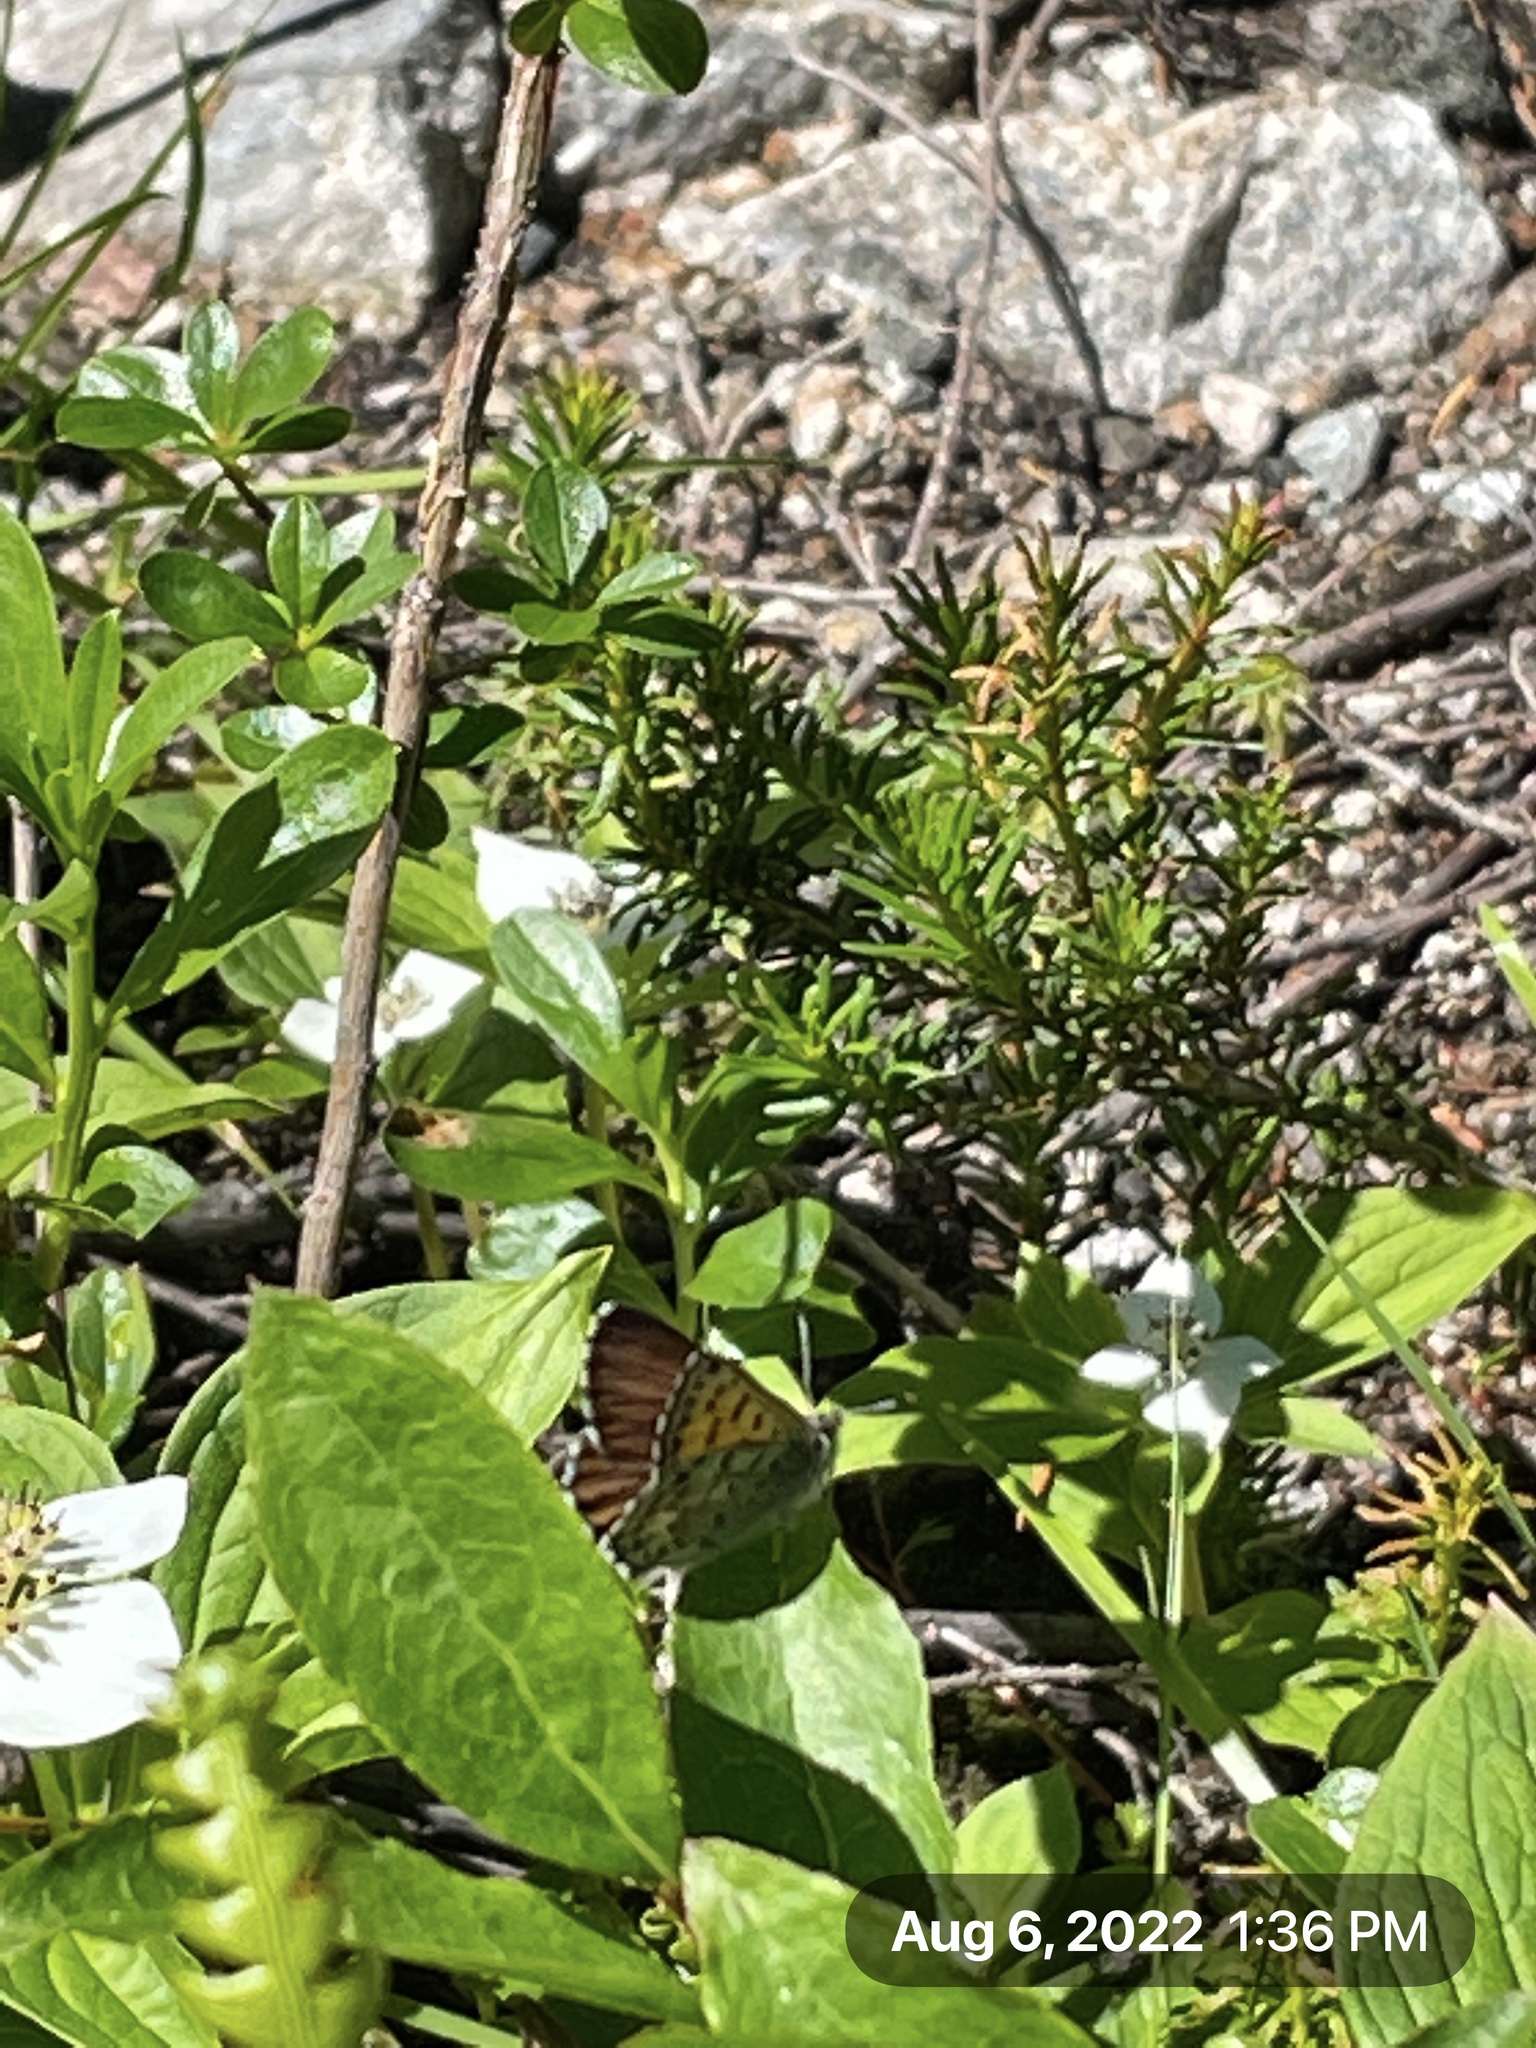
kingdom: Animalia
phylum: Arthropoda
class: Insecta
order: Lepidoptera
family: Lycaenidae
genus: Tharsalea
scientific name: Tharsalea mariposa
